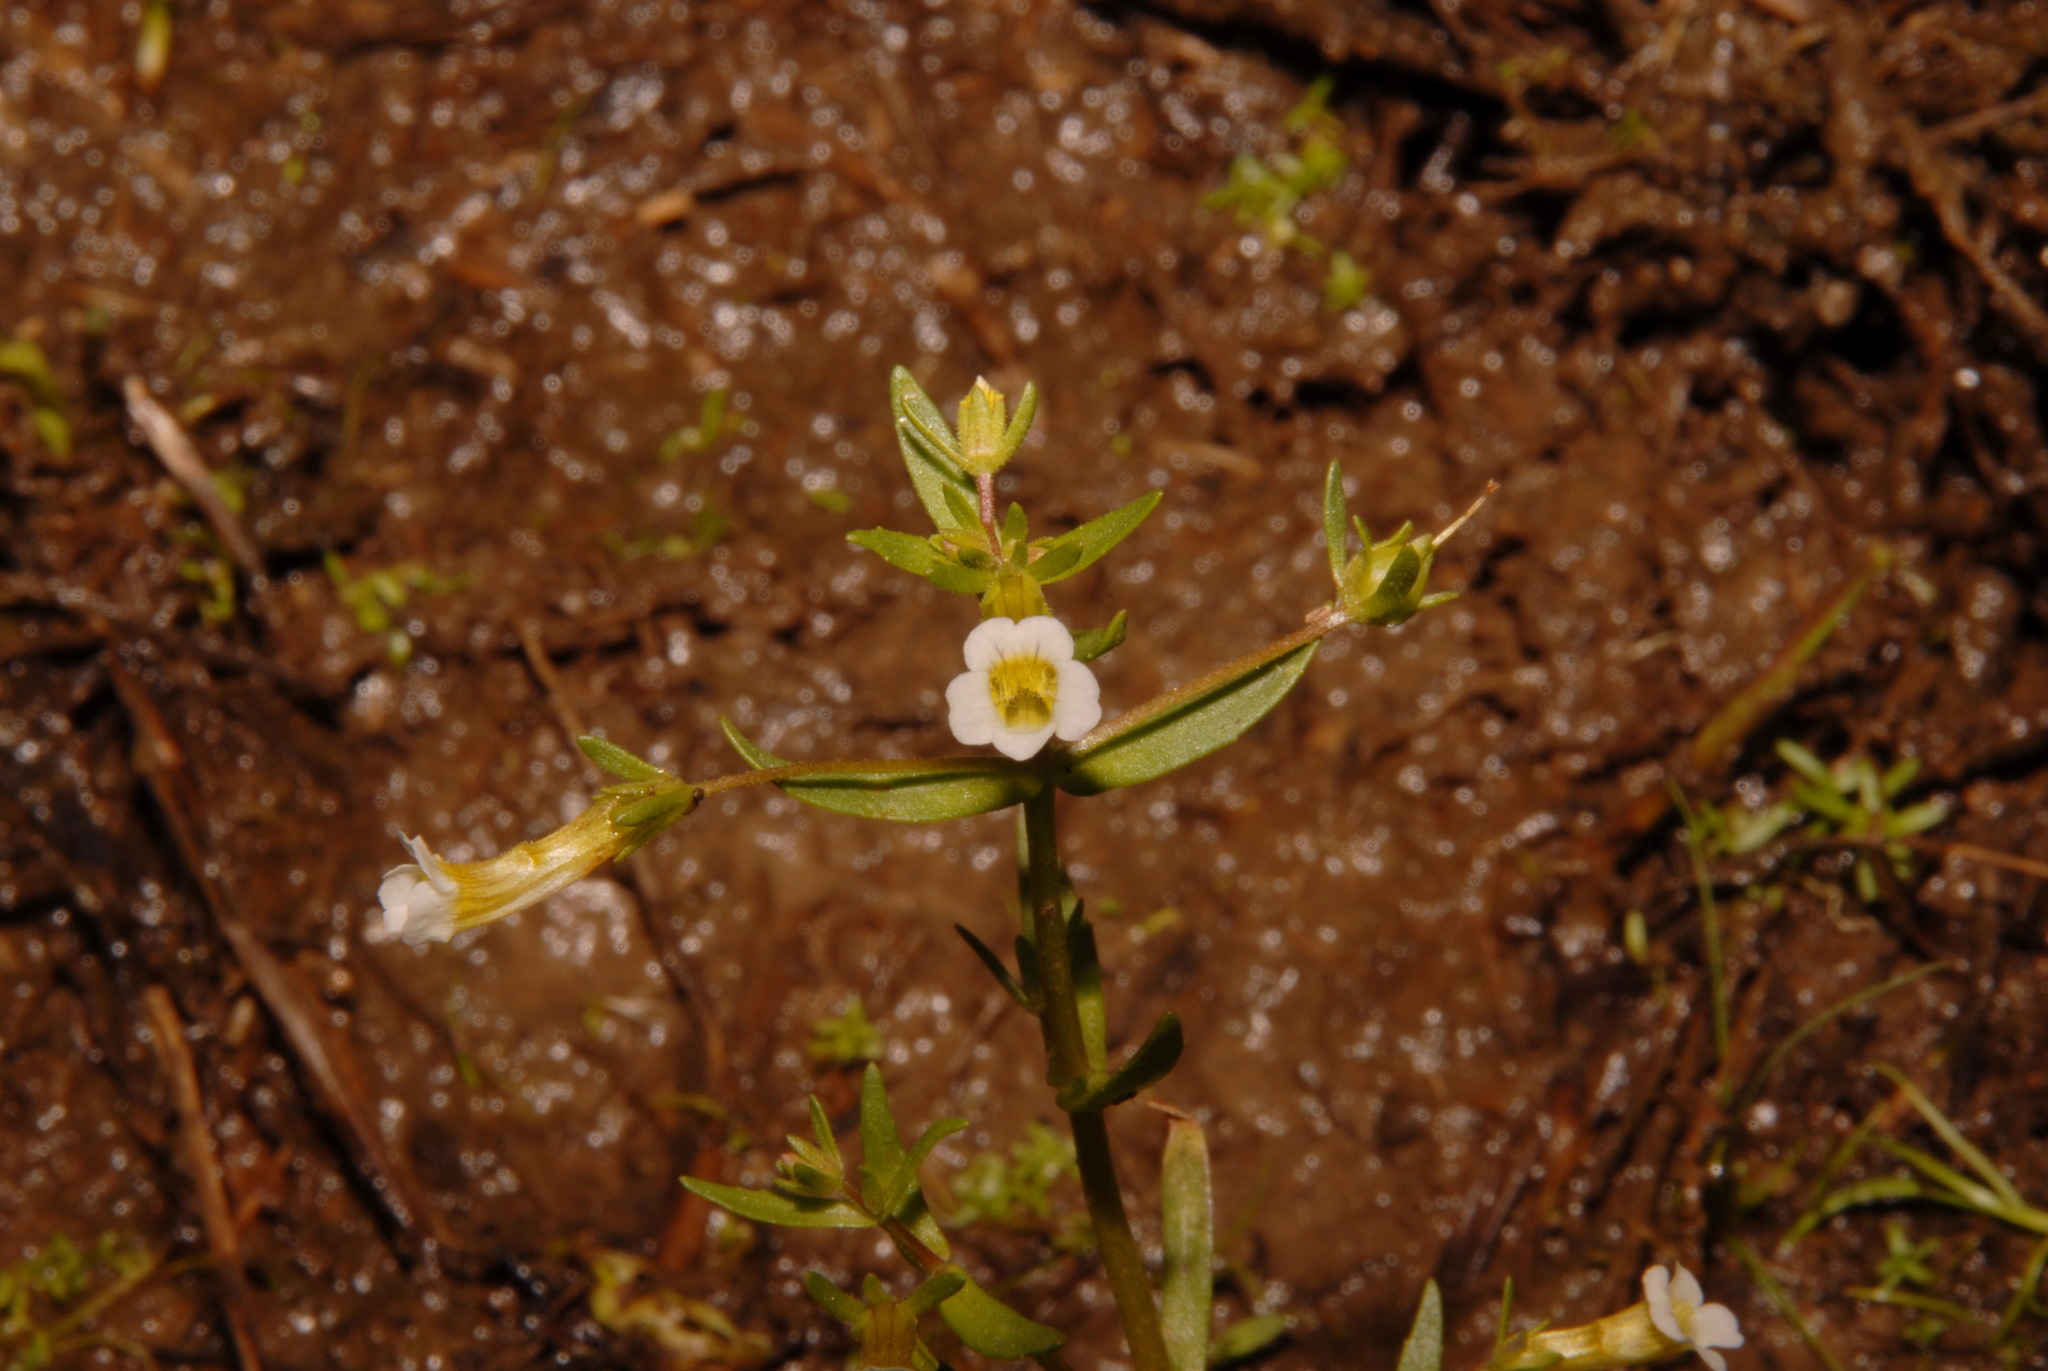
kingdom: Plantae
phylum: Tracheophyta
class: Magnoliopsida
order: Lamiales
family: Plantaginaceae
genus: Gratiola
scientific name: Gratiola quartermaniae
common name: Quarterman's hedge-hyssop
